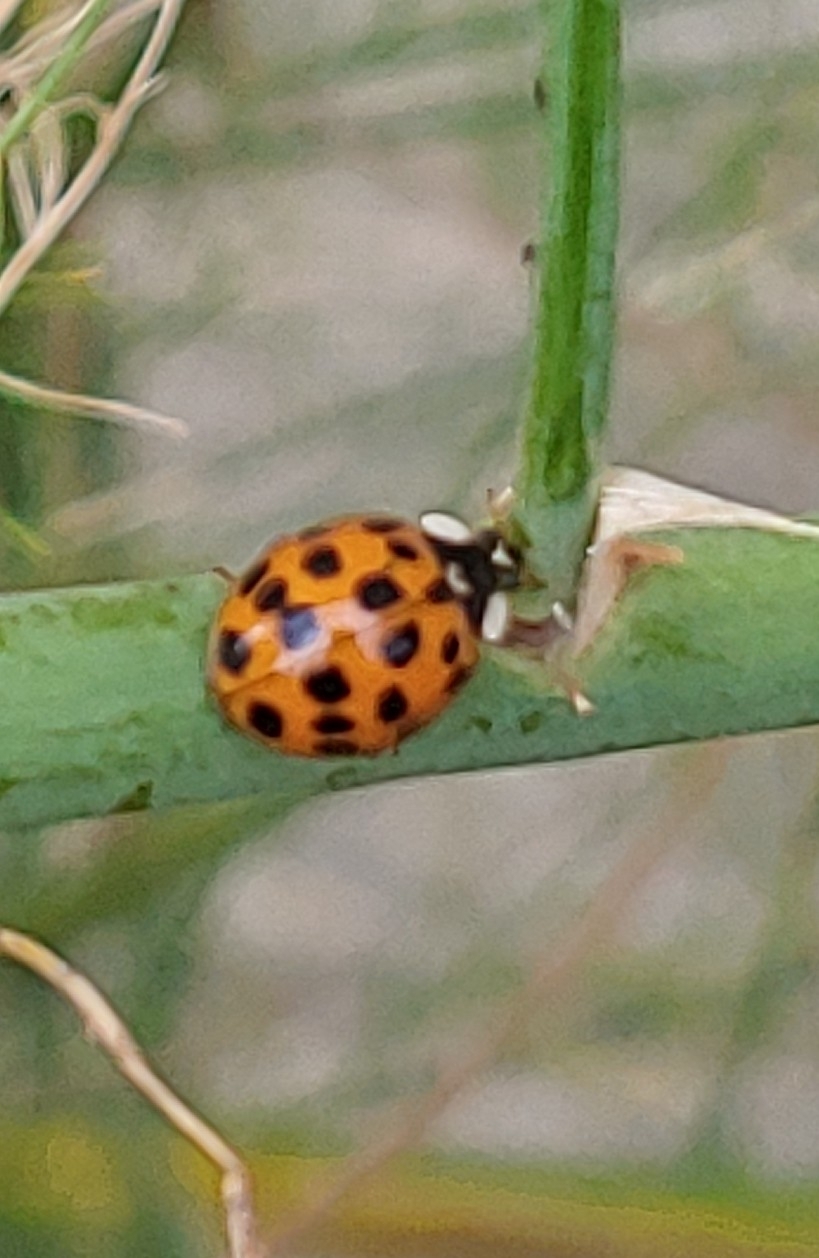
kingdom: Animalia
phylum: Arthropoda
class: Insecta
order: Coleoptera
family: Coccinellidae
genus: Harmonia
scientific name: Harmonia axyridis
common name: Harlequin ladybird
